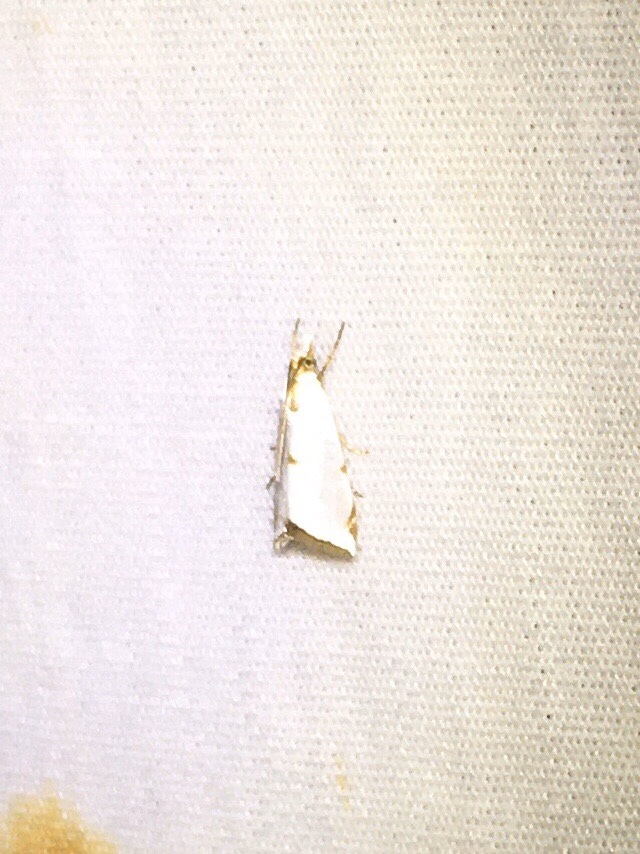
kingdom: Animalia
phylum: Arthropoda
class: Insecta
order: Lepidoptera
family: Crambidae
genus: Argyria
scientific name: Argyria lacteella
